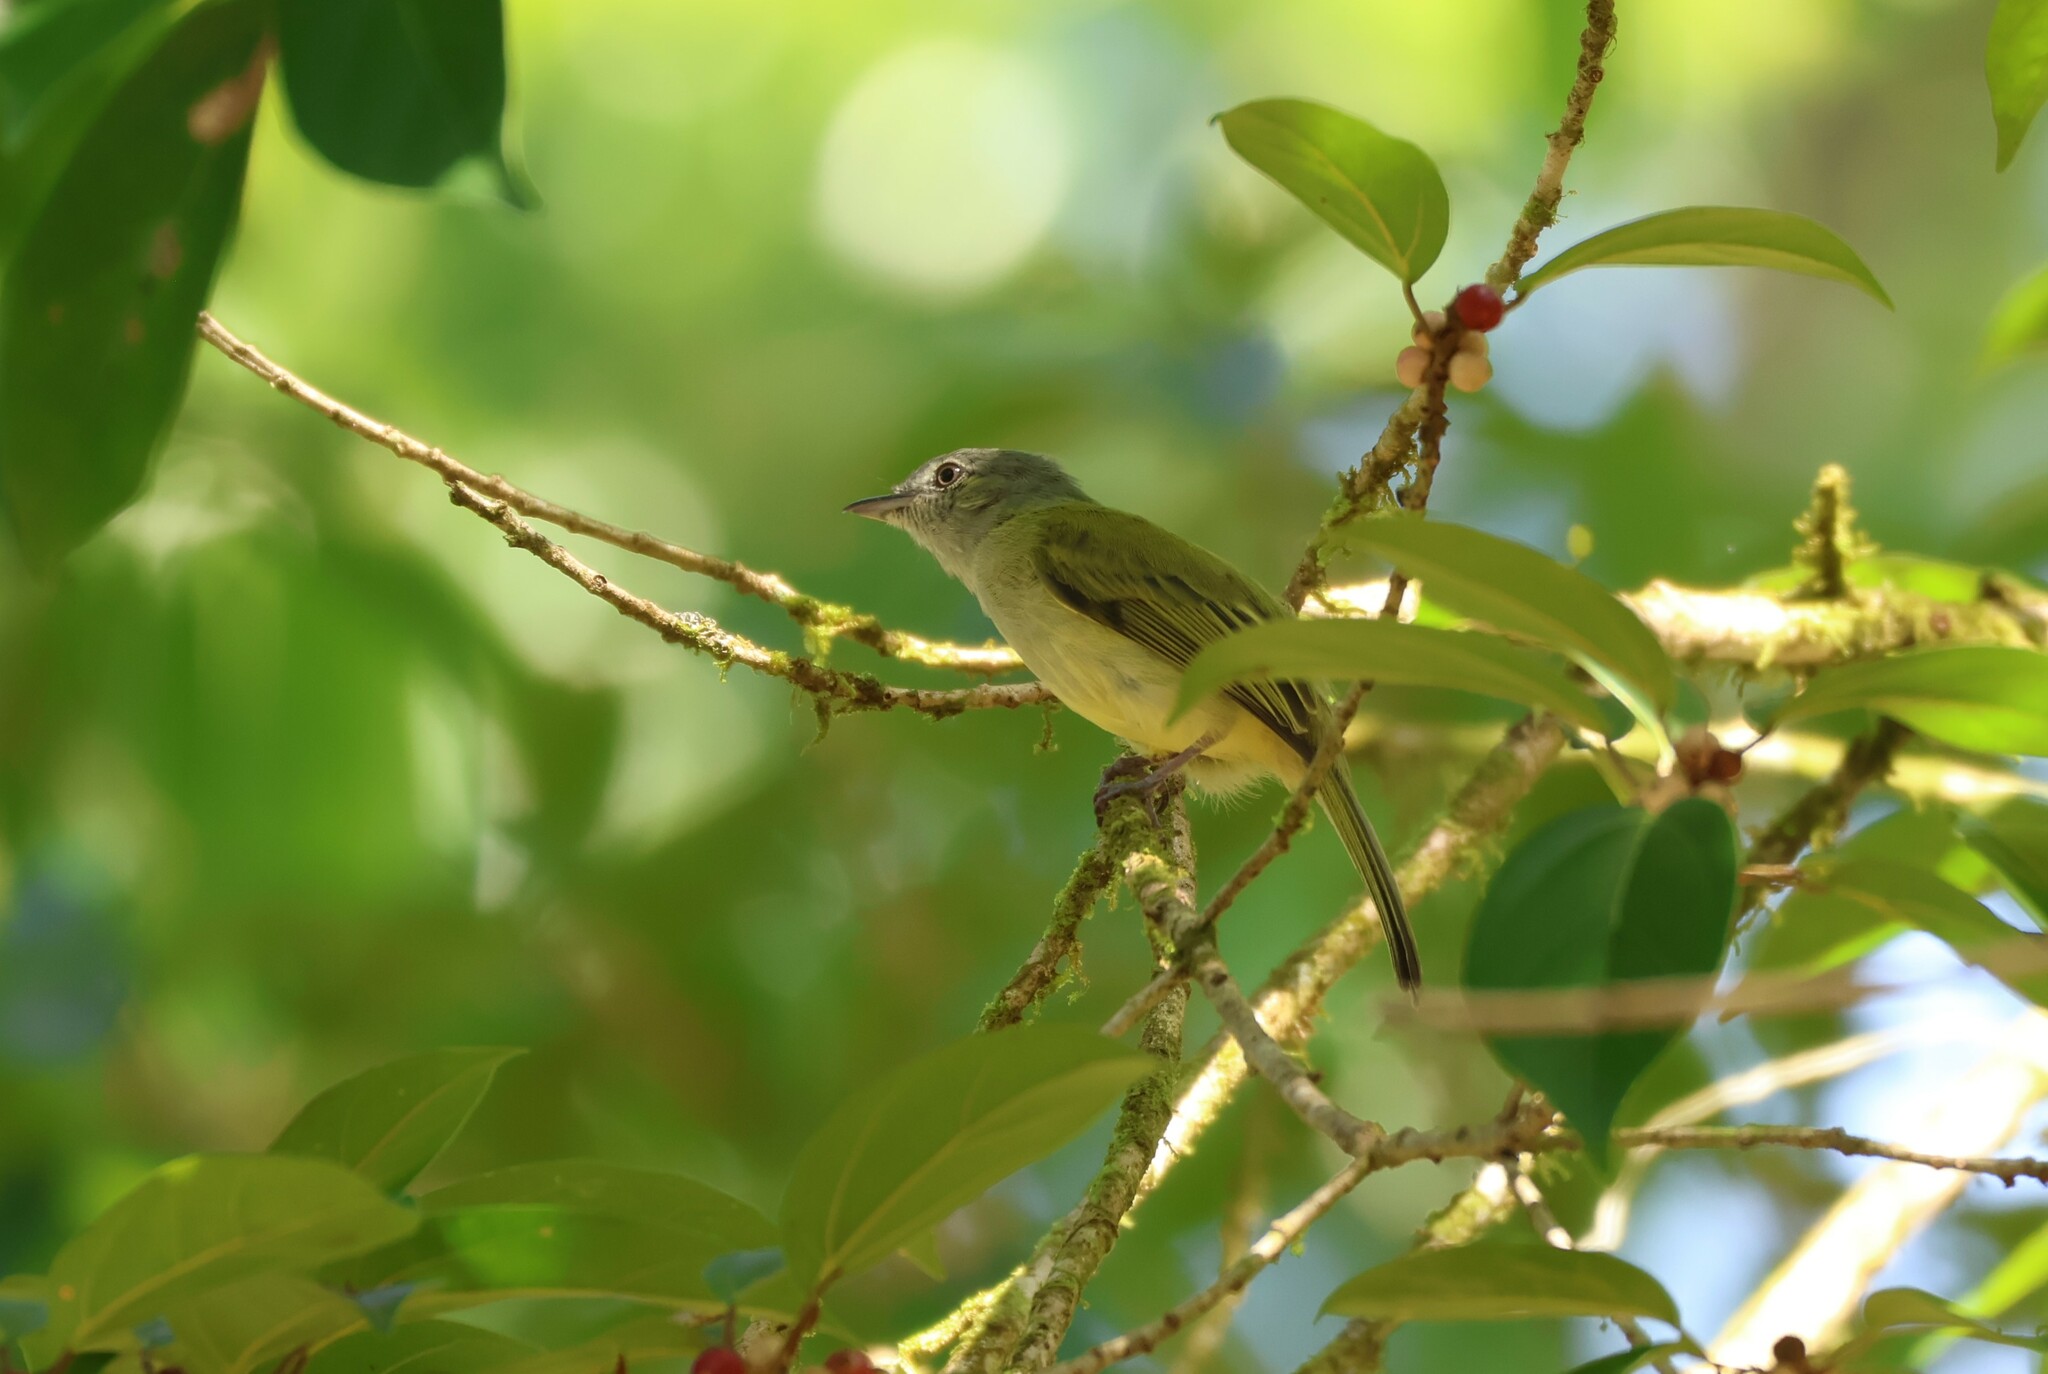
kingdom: Animalia
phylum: Chordata
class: Aves
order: Passeriformes
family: Tyrannidae
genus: Tolmomyias
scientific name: Tolmomyias sulphurescens
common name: Yellow-olive flycatcher
